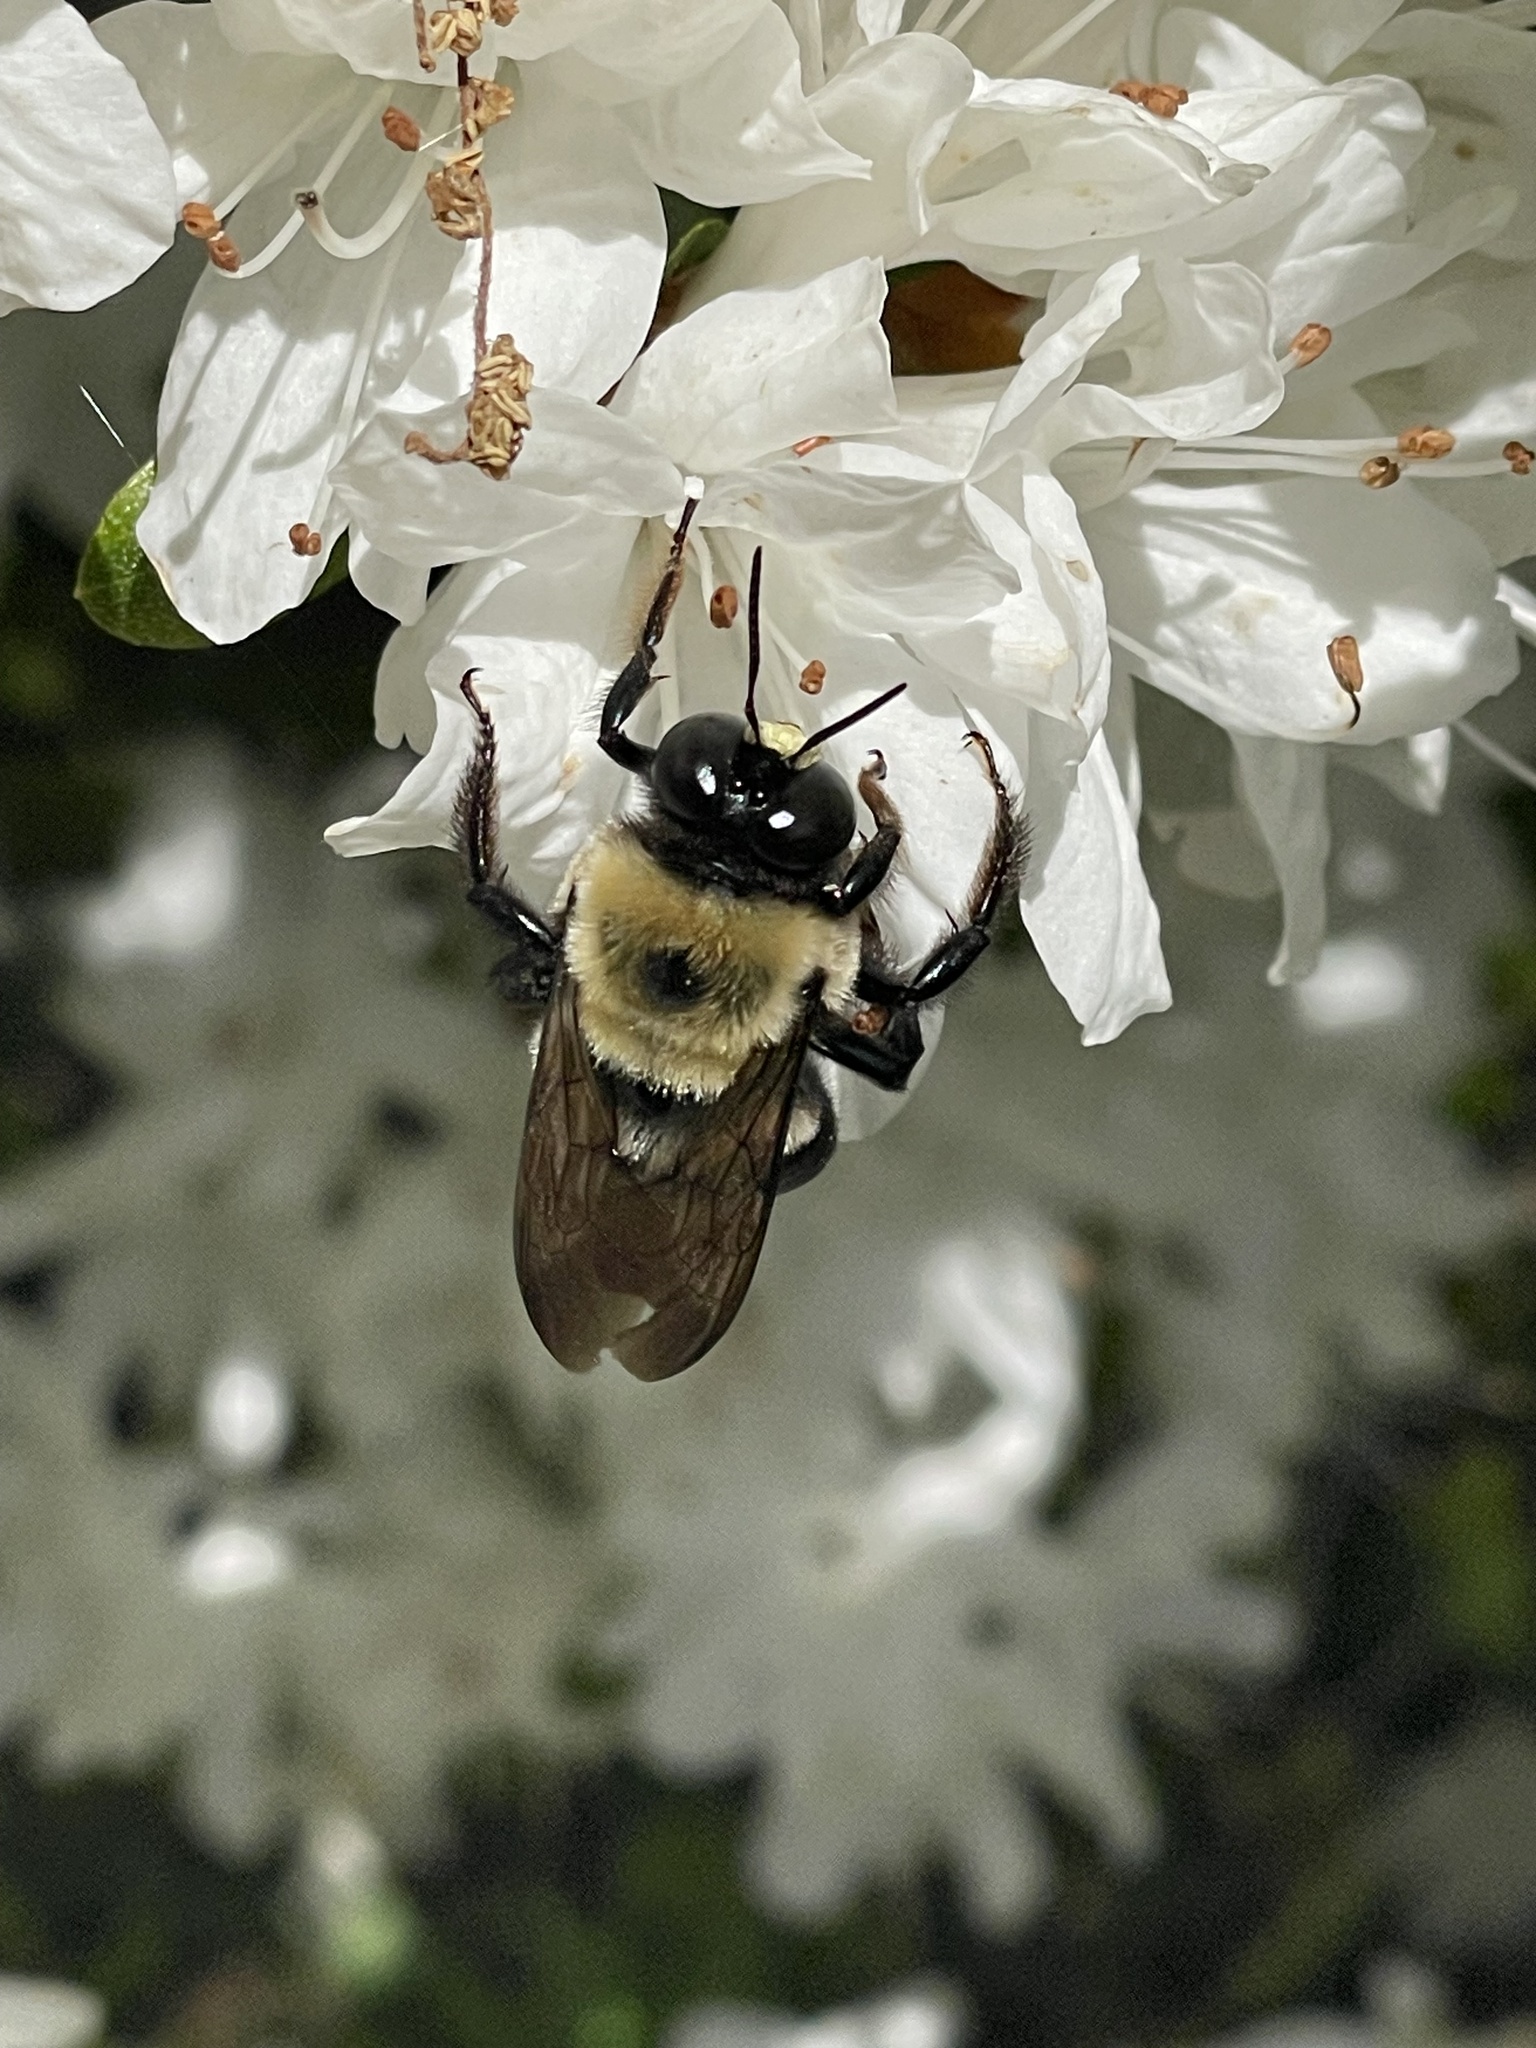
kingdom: Animalia
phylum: Arthropoda
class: Insecta
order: Hymenoptera
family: Apidae
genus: Xylocopa
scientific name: Xylocopa virginica
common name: Carpenter bee
